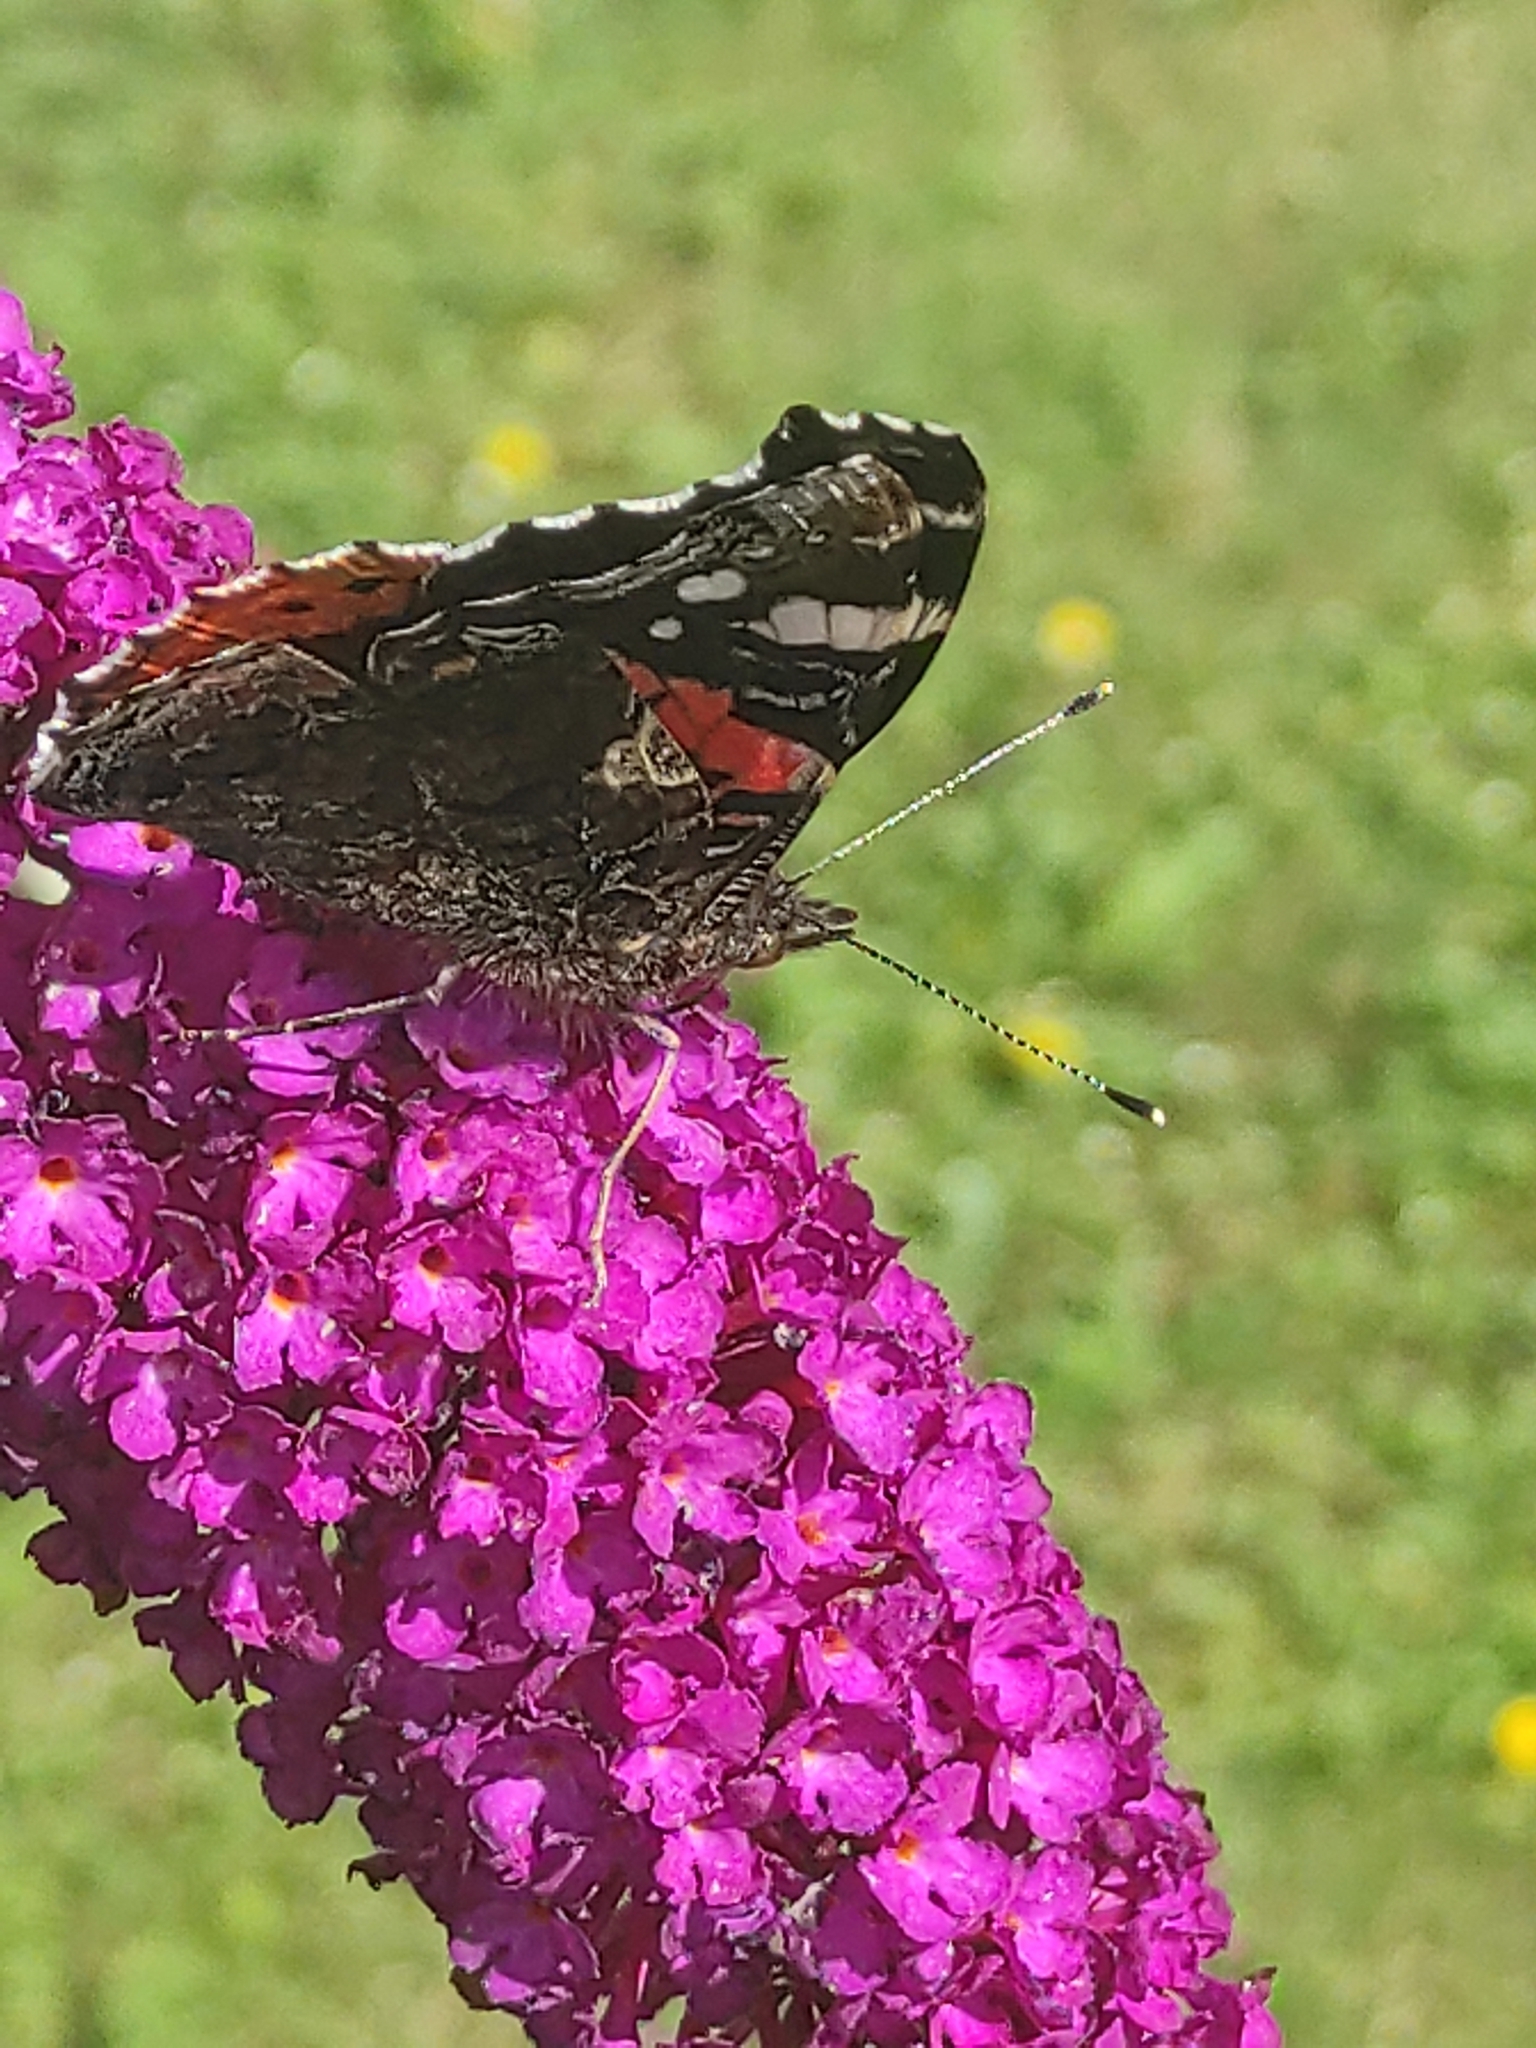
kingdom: Animalia
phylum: Arthropoda
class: Insecta
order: Lepidoptera
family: Nymphalidae
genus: Vanessa
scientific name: Vanessa atalanta
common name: Red admiral
